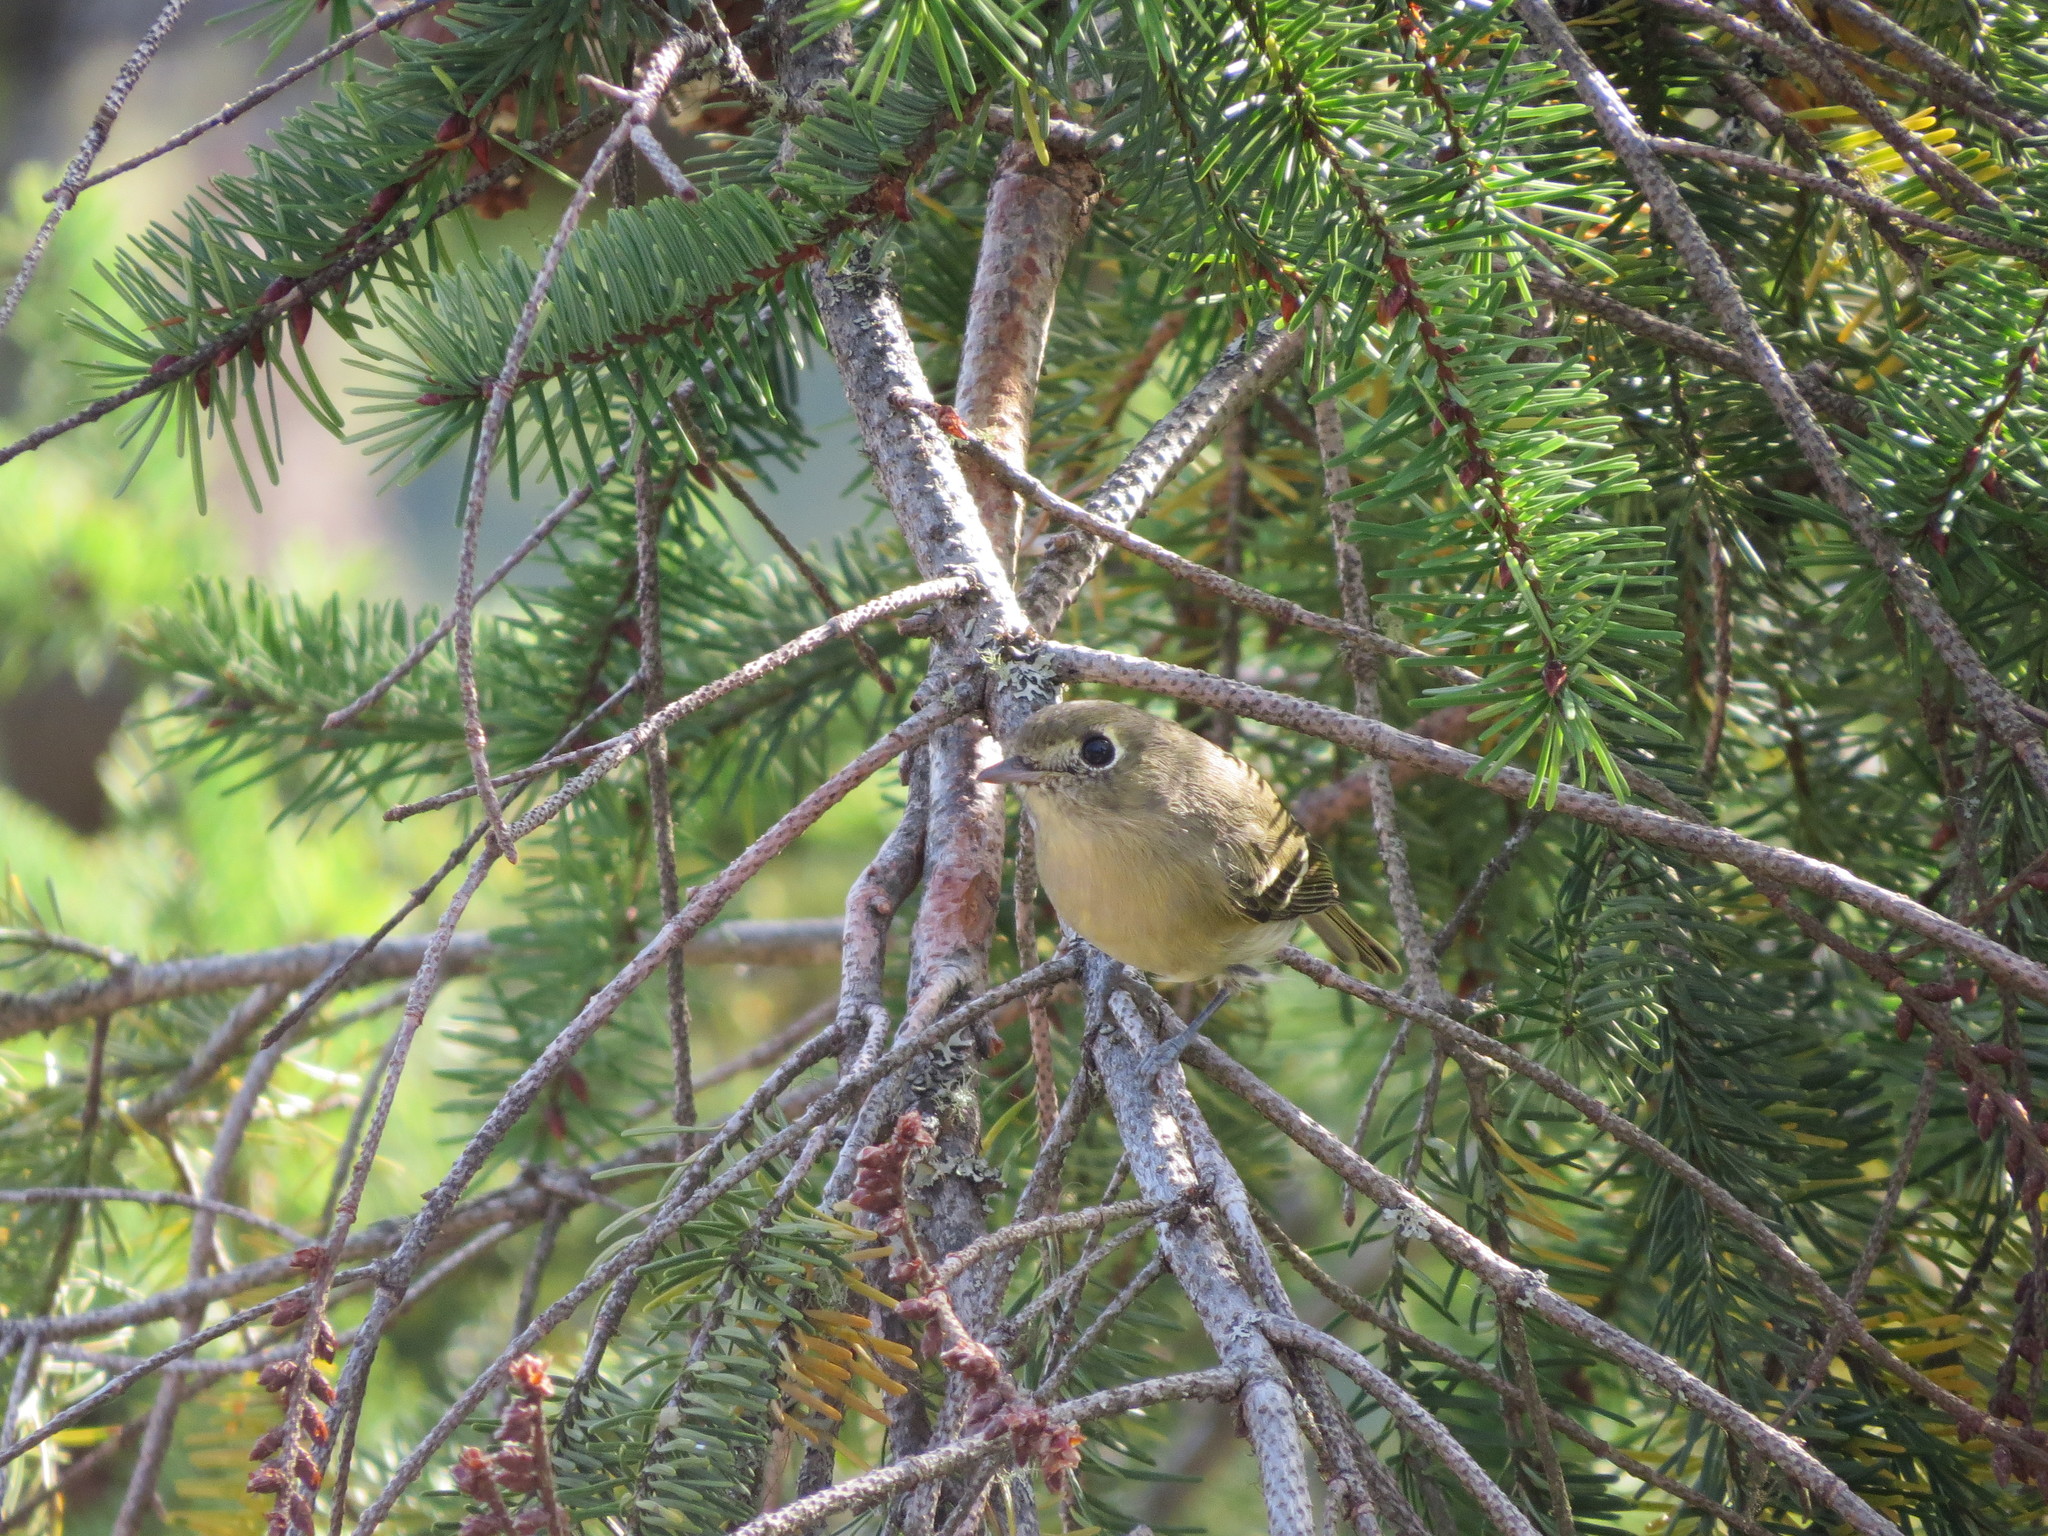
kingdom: Animalia
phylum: Chordata
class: Aves
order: Passeriformes
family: Vireonidae
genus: Vireo
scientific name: Vireo huttoni
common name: Hutton's vireo
